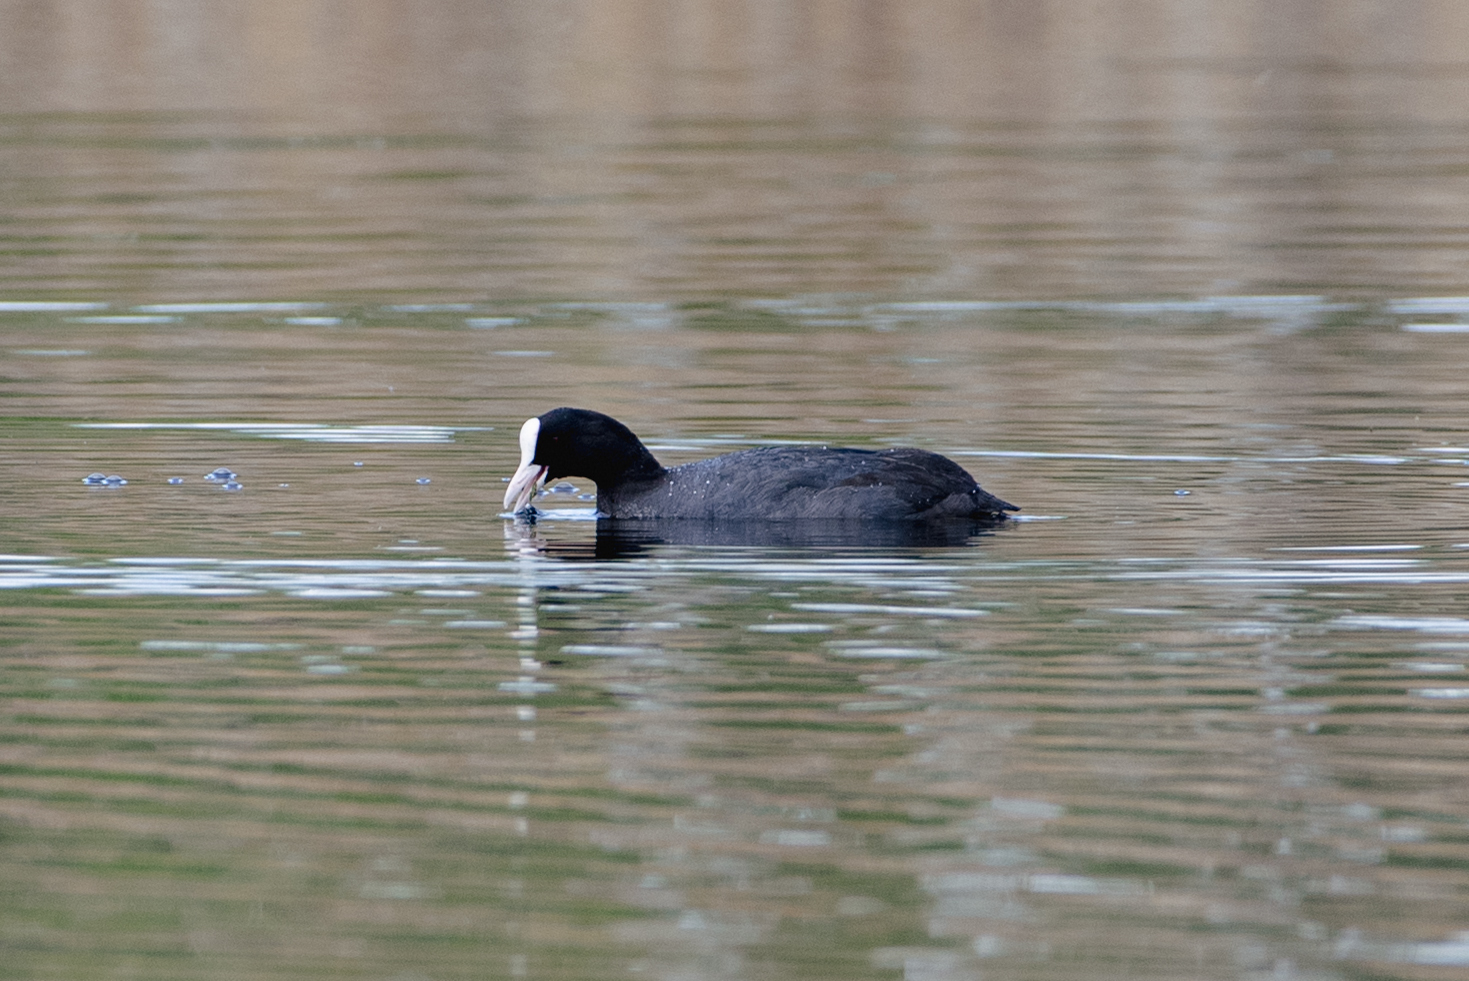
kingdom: Animalia
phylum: Chordata
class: Aves
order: Gruiformes
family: Rallidae
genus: Fulica
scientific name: Fulica atra
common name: Eurasian coot
